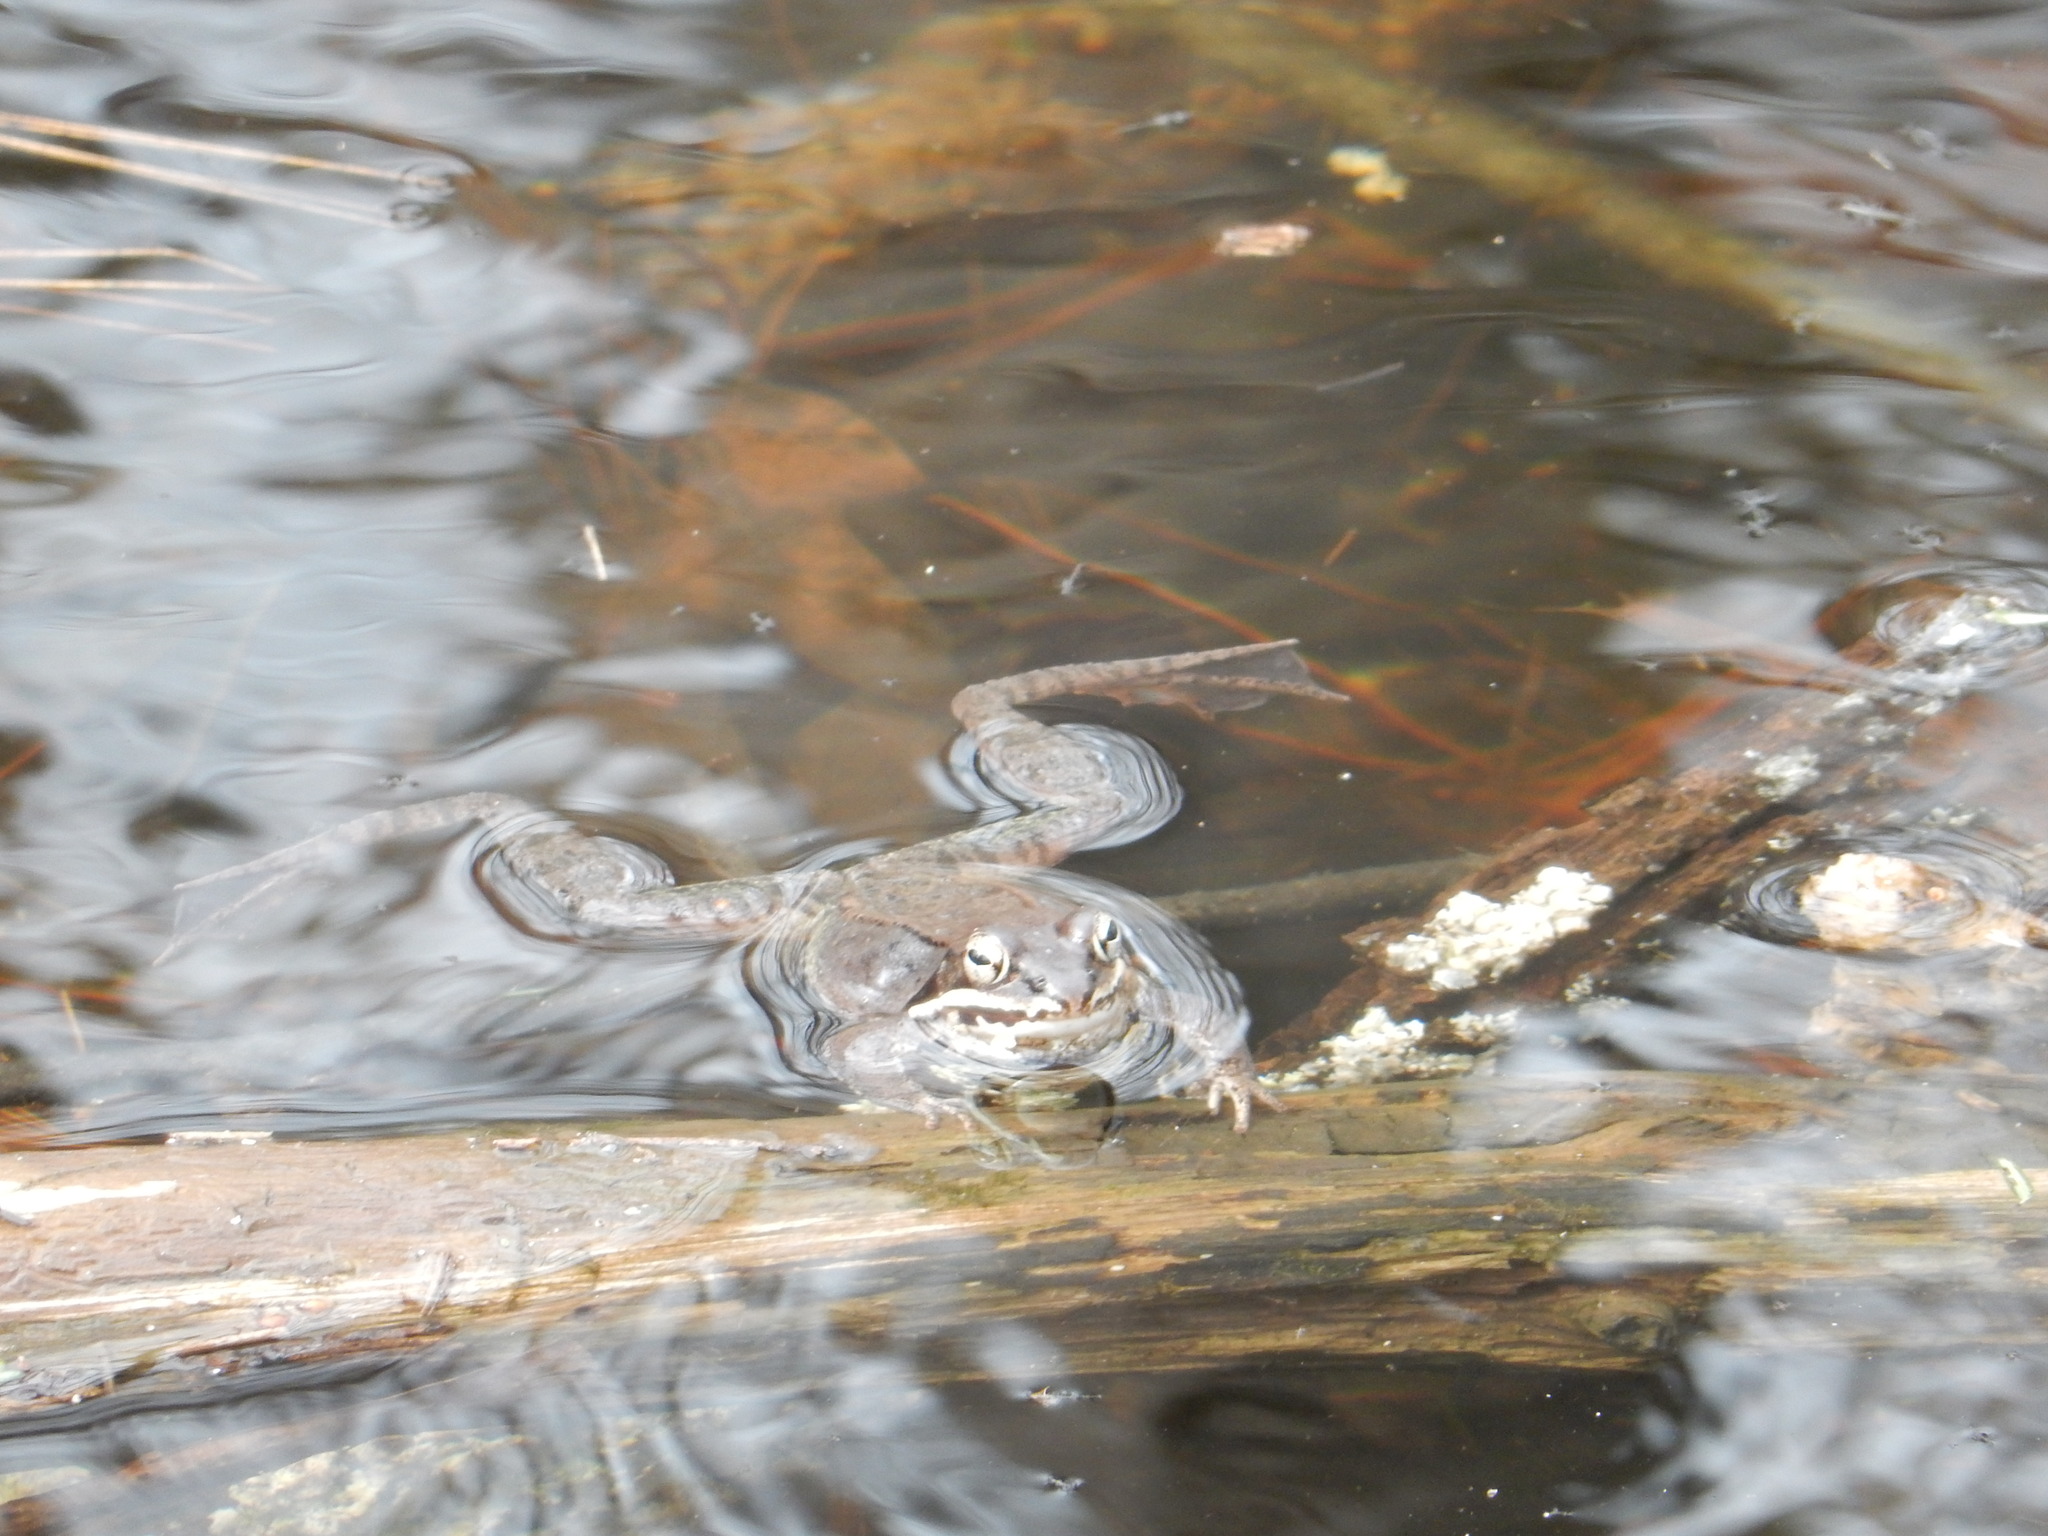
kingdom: Animalia
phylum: Chordata
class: Amphibia
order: Anura
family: Ranidae
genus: Lithobates
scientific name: Lithobates sylvaticus
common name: Wood frog
